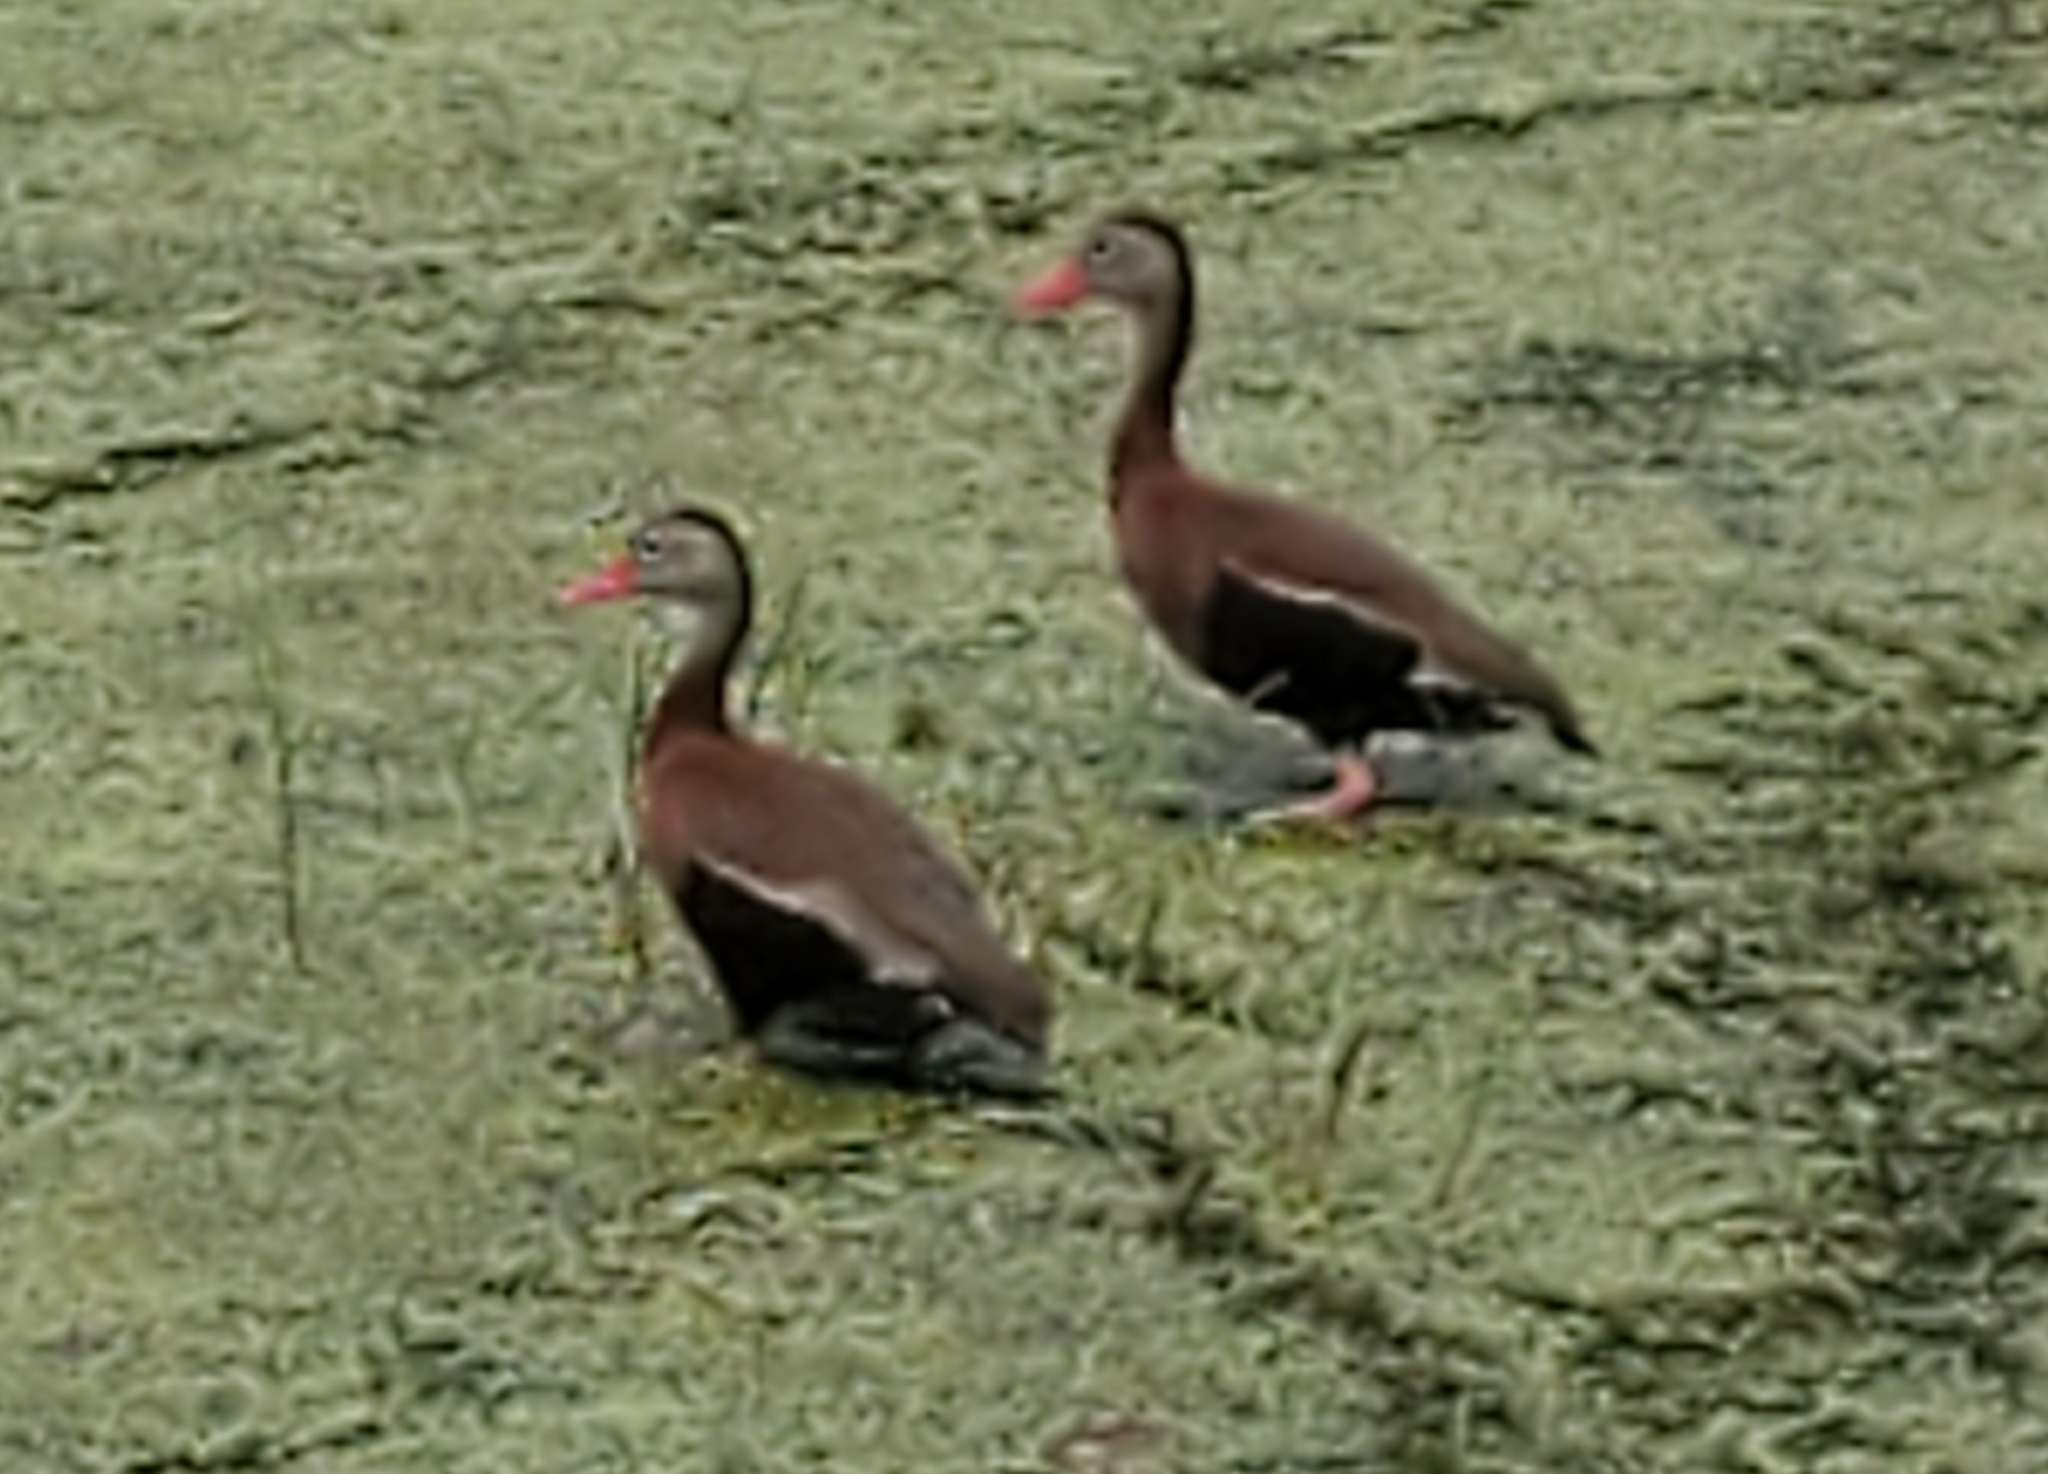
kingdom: Animalia
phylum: Chordata
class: Aves
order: Anseriformes
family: Anatidae
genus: Dendrocygna
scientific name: Dendrocygna autumnalis
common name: Black-bellied whistling duck
